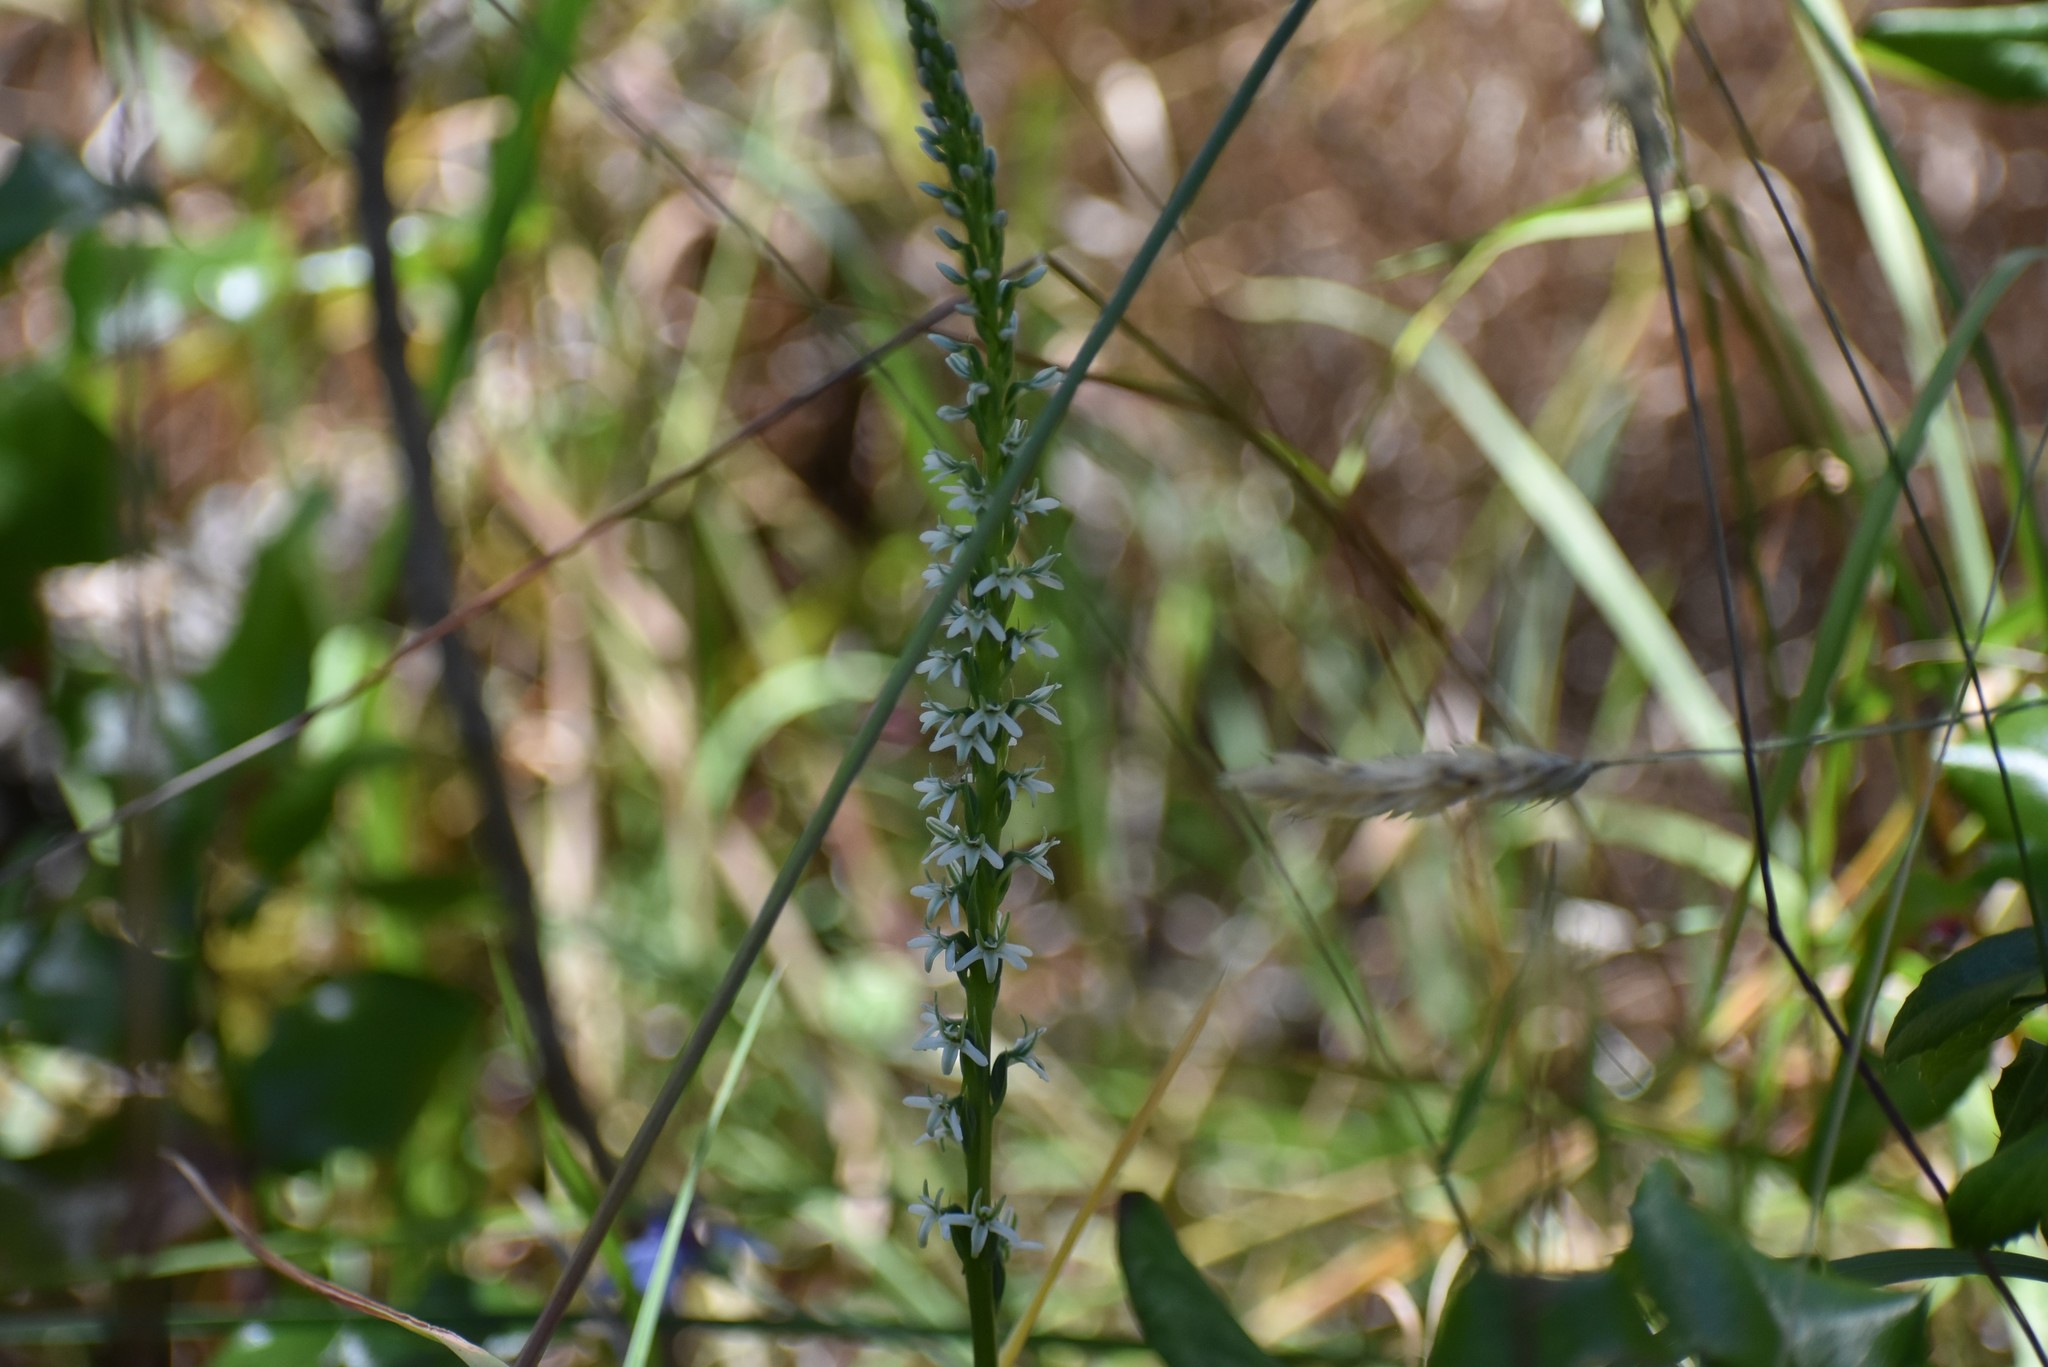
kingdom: Plantae
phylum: Tracheophyta
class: Liliopsida
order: Asparagales
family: Orchidaceae
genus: Platanthera
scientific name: Platanthera elegans
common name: Coast piperia
